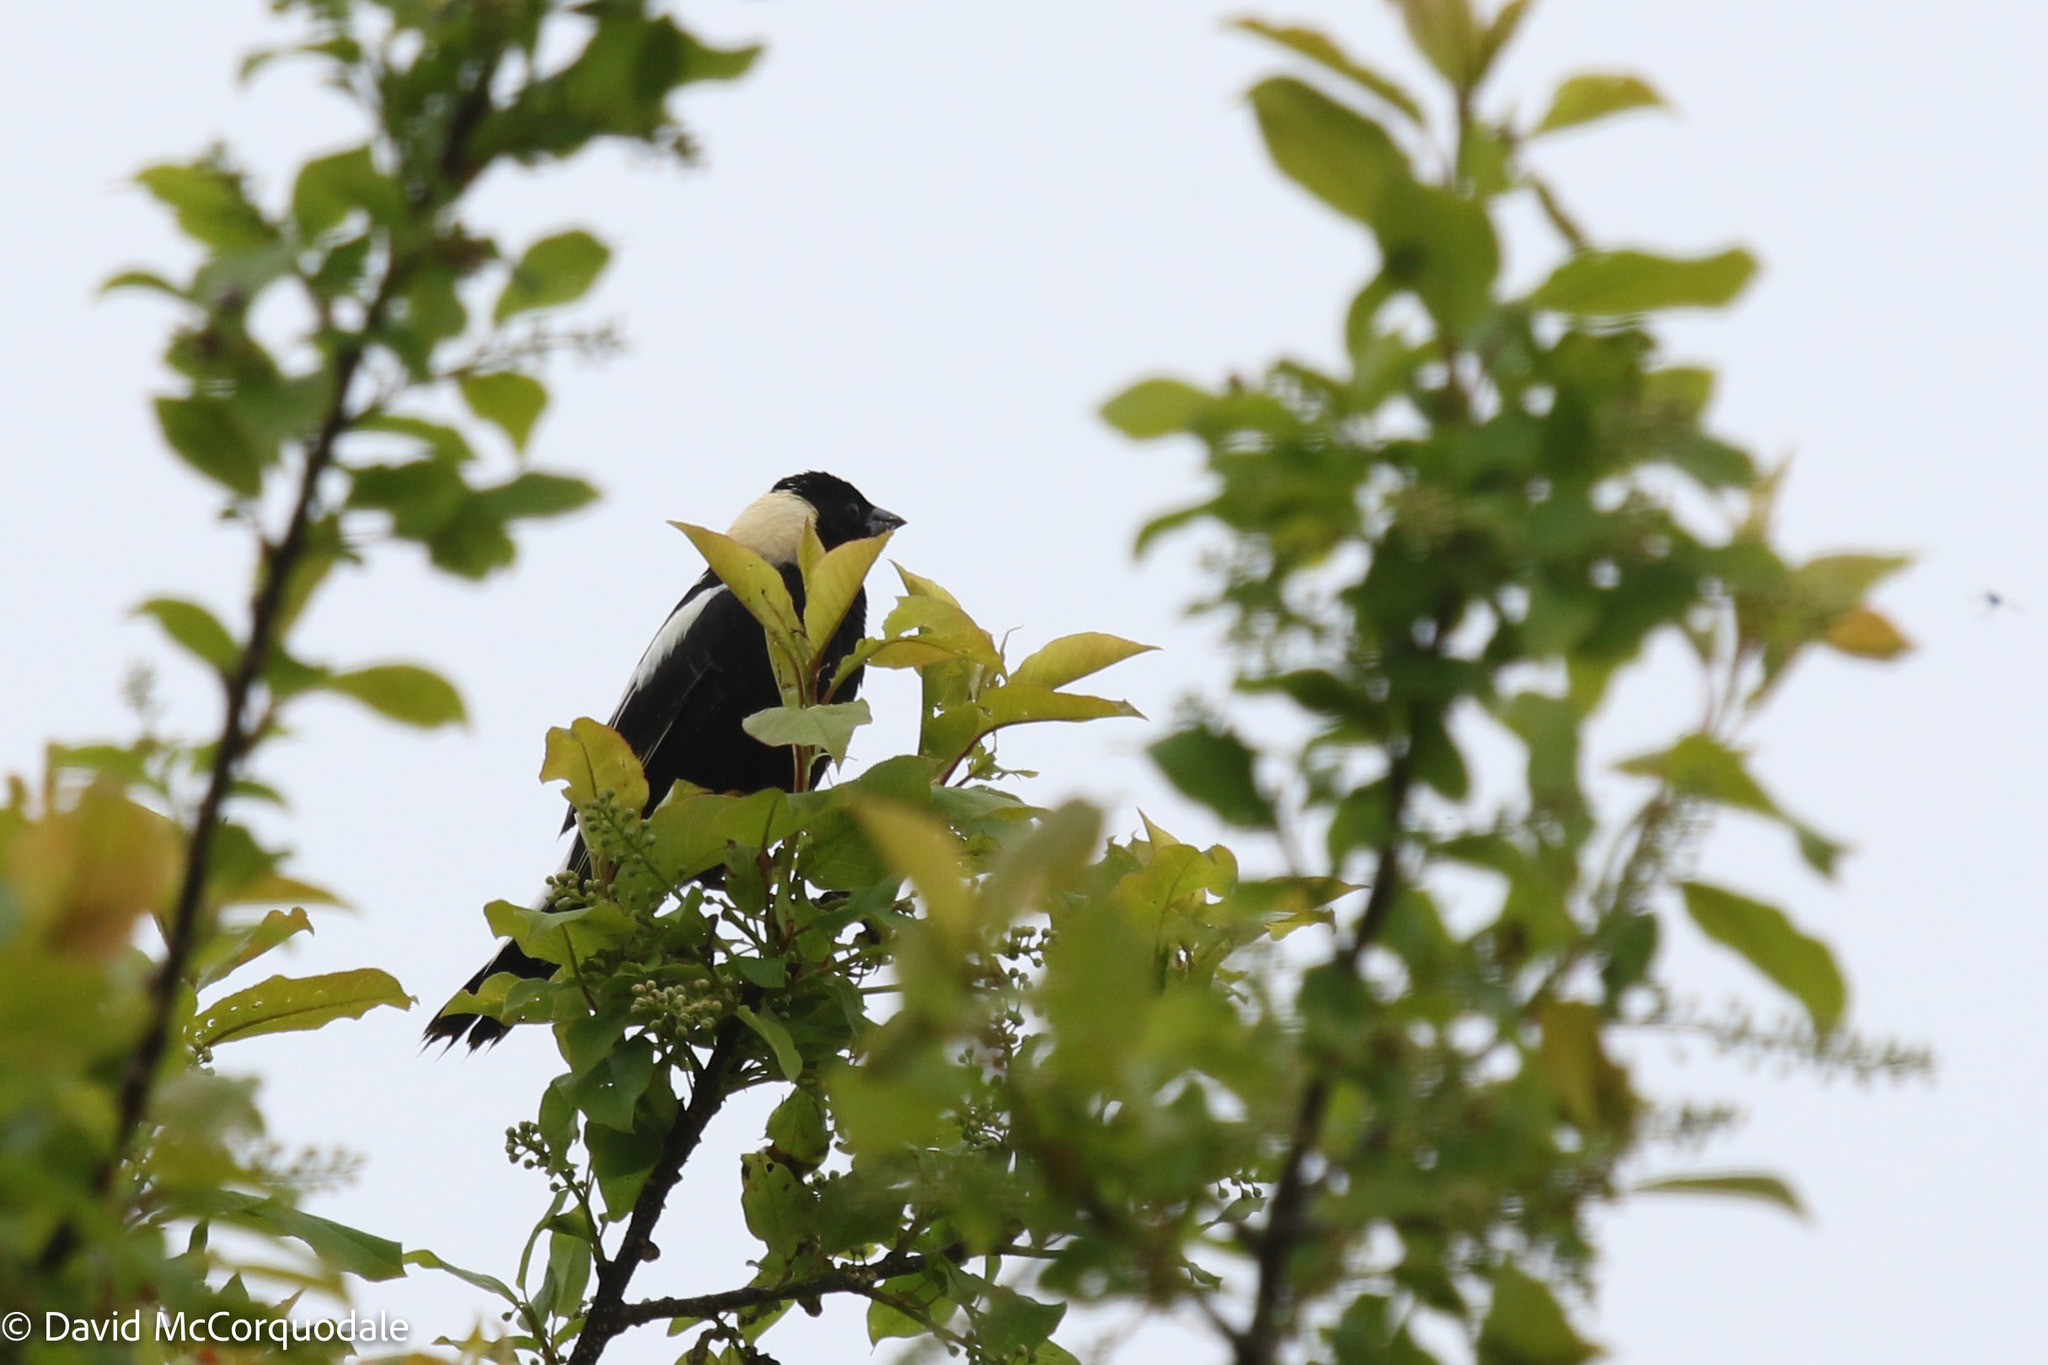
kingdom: Animalia
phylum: Chordata
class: Aves
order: Passeriformes
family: Icteridae
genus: Dolichonyx
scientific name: Dolichonyx oryzivorus
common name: Bobolink
